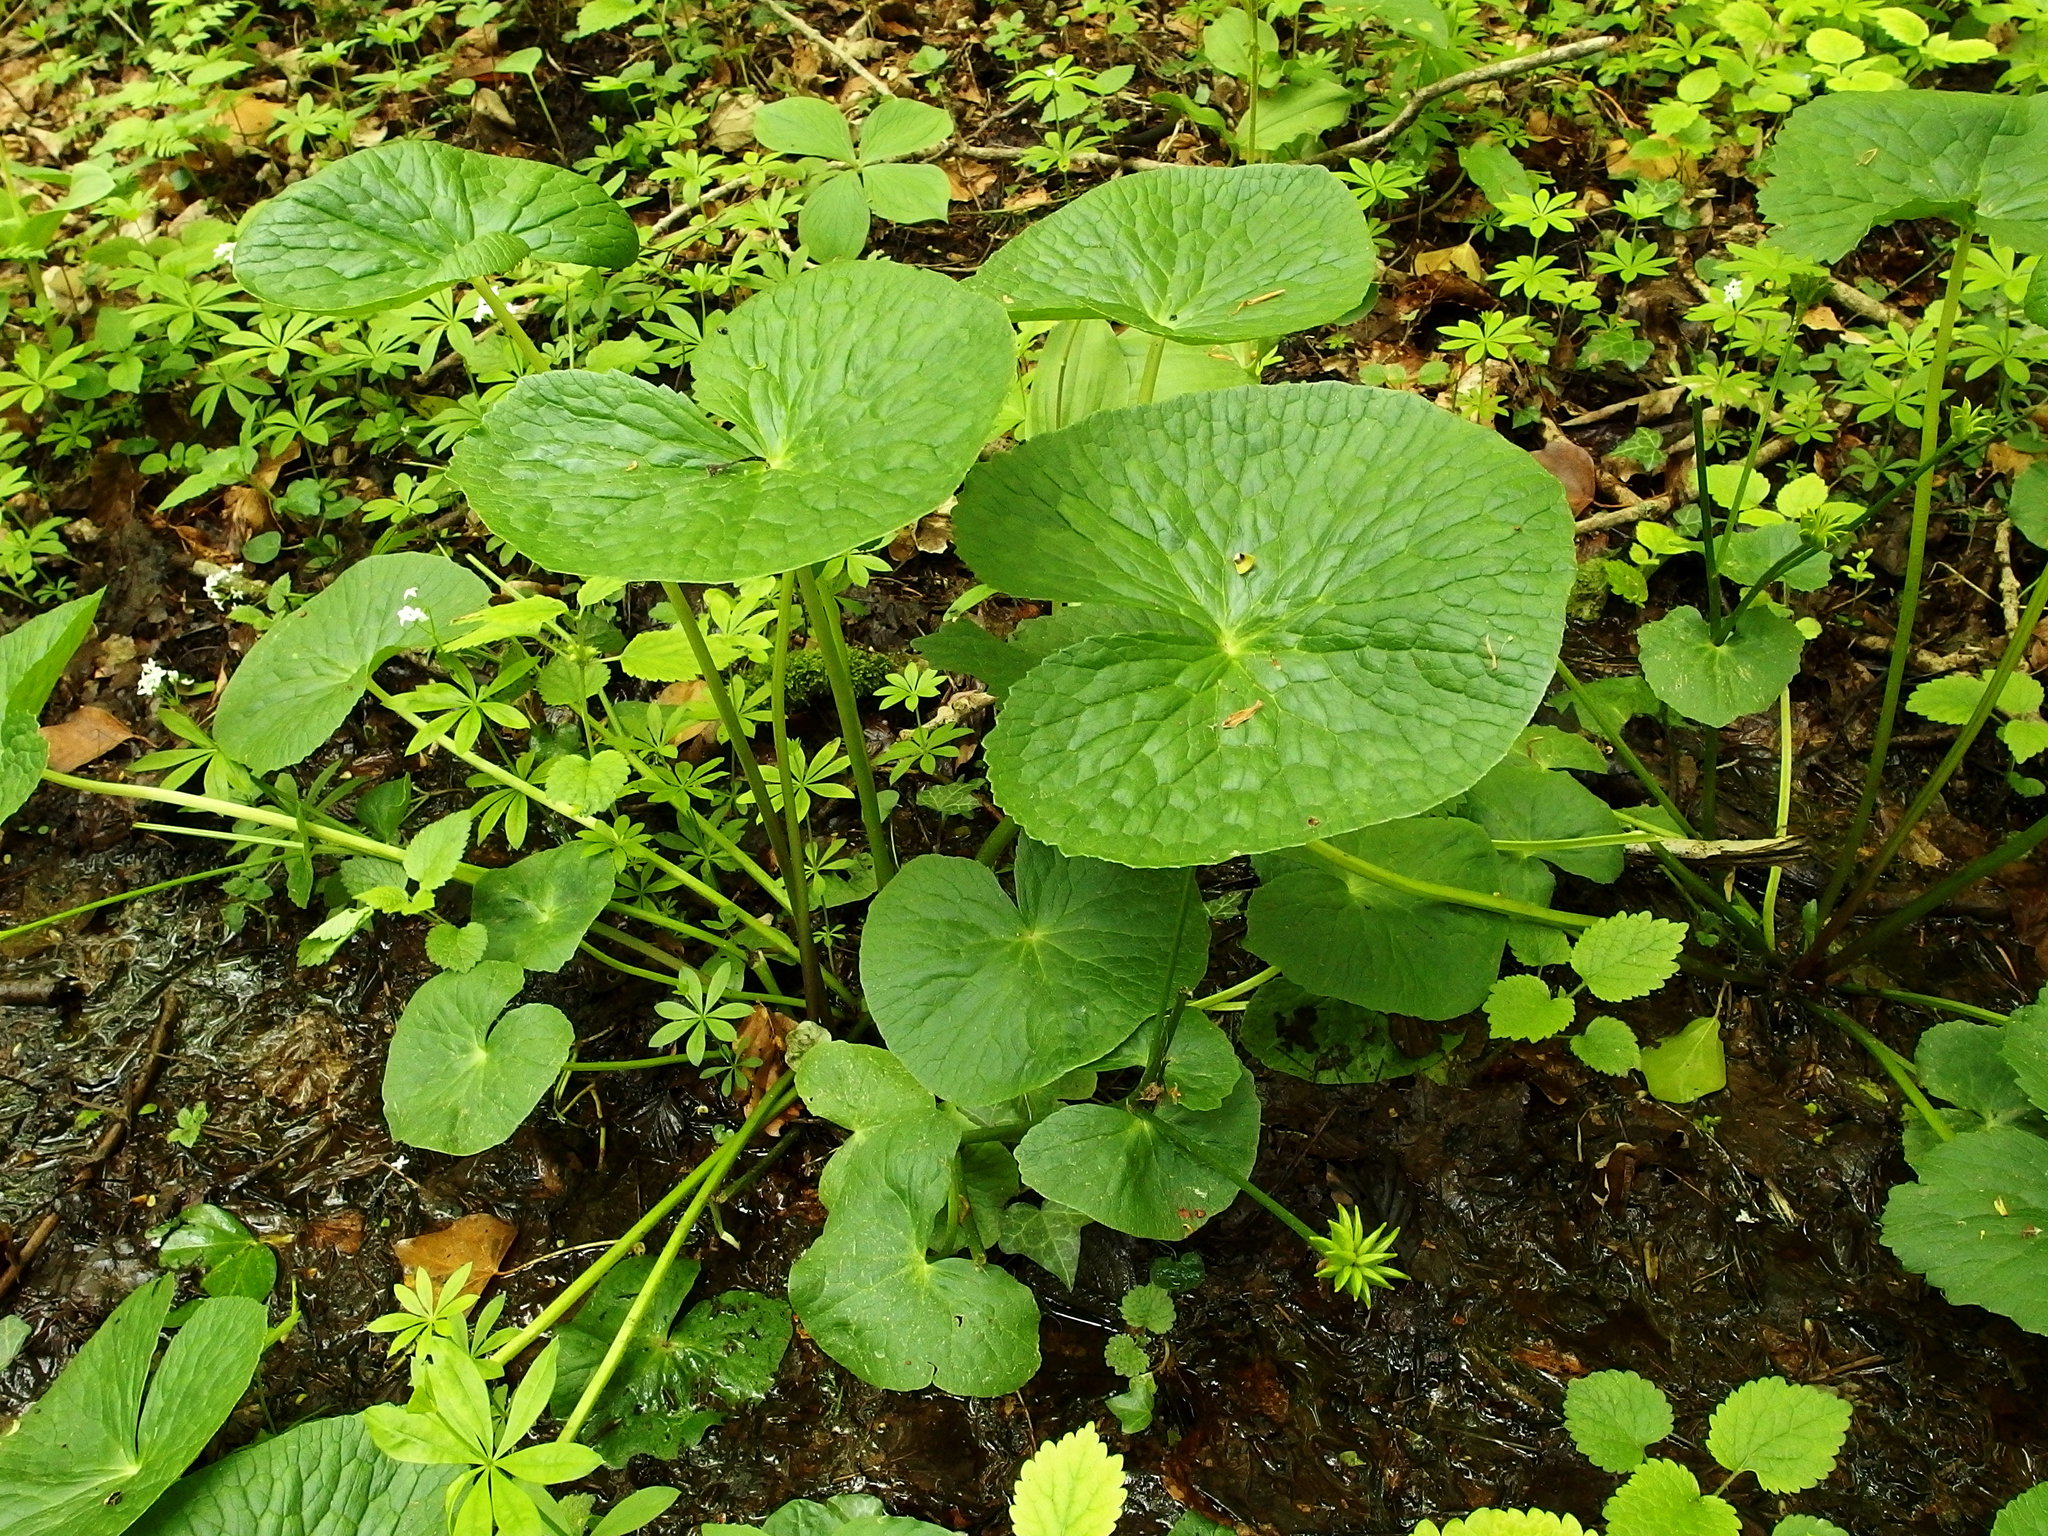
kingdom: Plantae
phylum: Tracheophyta
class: Magnoliopsida
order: Ranunculales
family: Ranunculaceae
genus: Caltha
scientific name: Caltha palustris
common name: Marsh marigold
